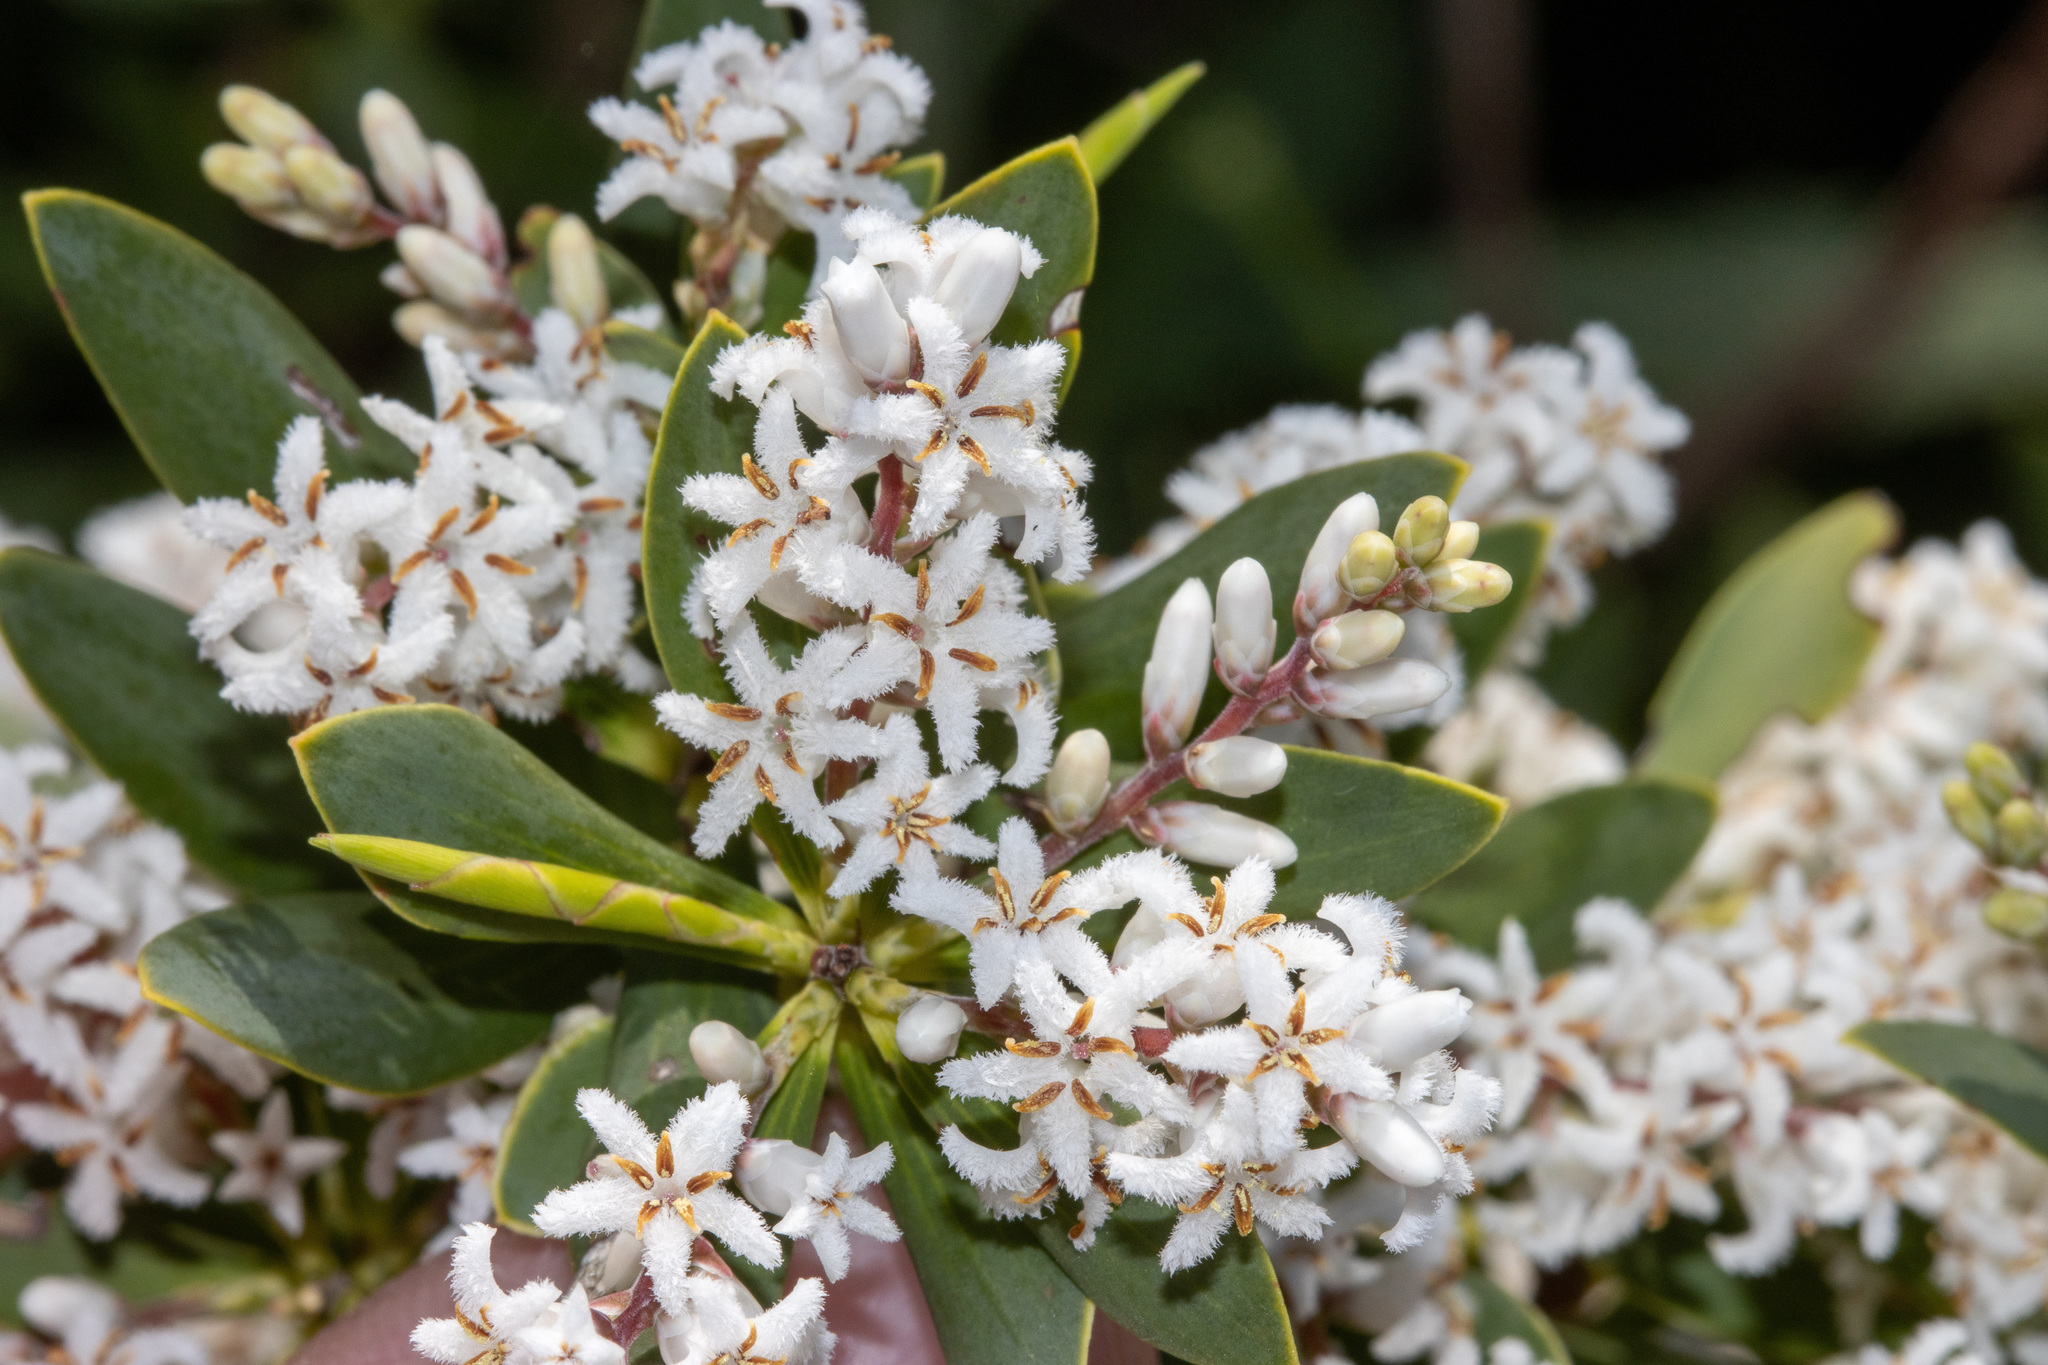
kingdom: Plantae
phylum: Tracheophyta
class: Magnoliopsida
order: Ericales
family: Ericaceae
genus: Leptecophylla
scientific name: Leptecophylla parvifolia
